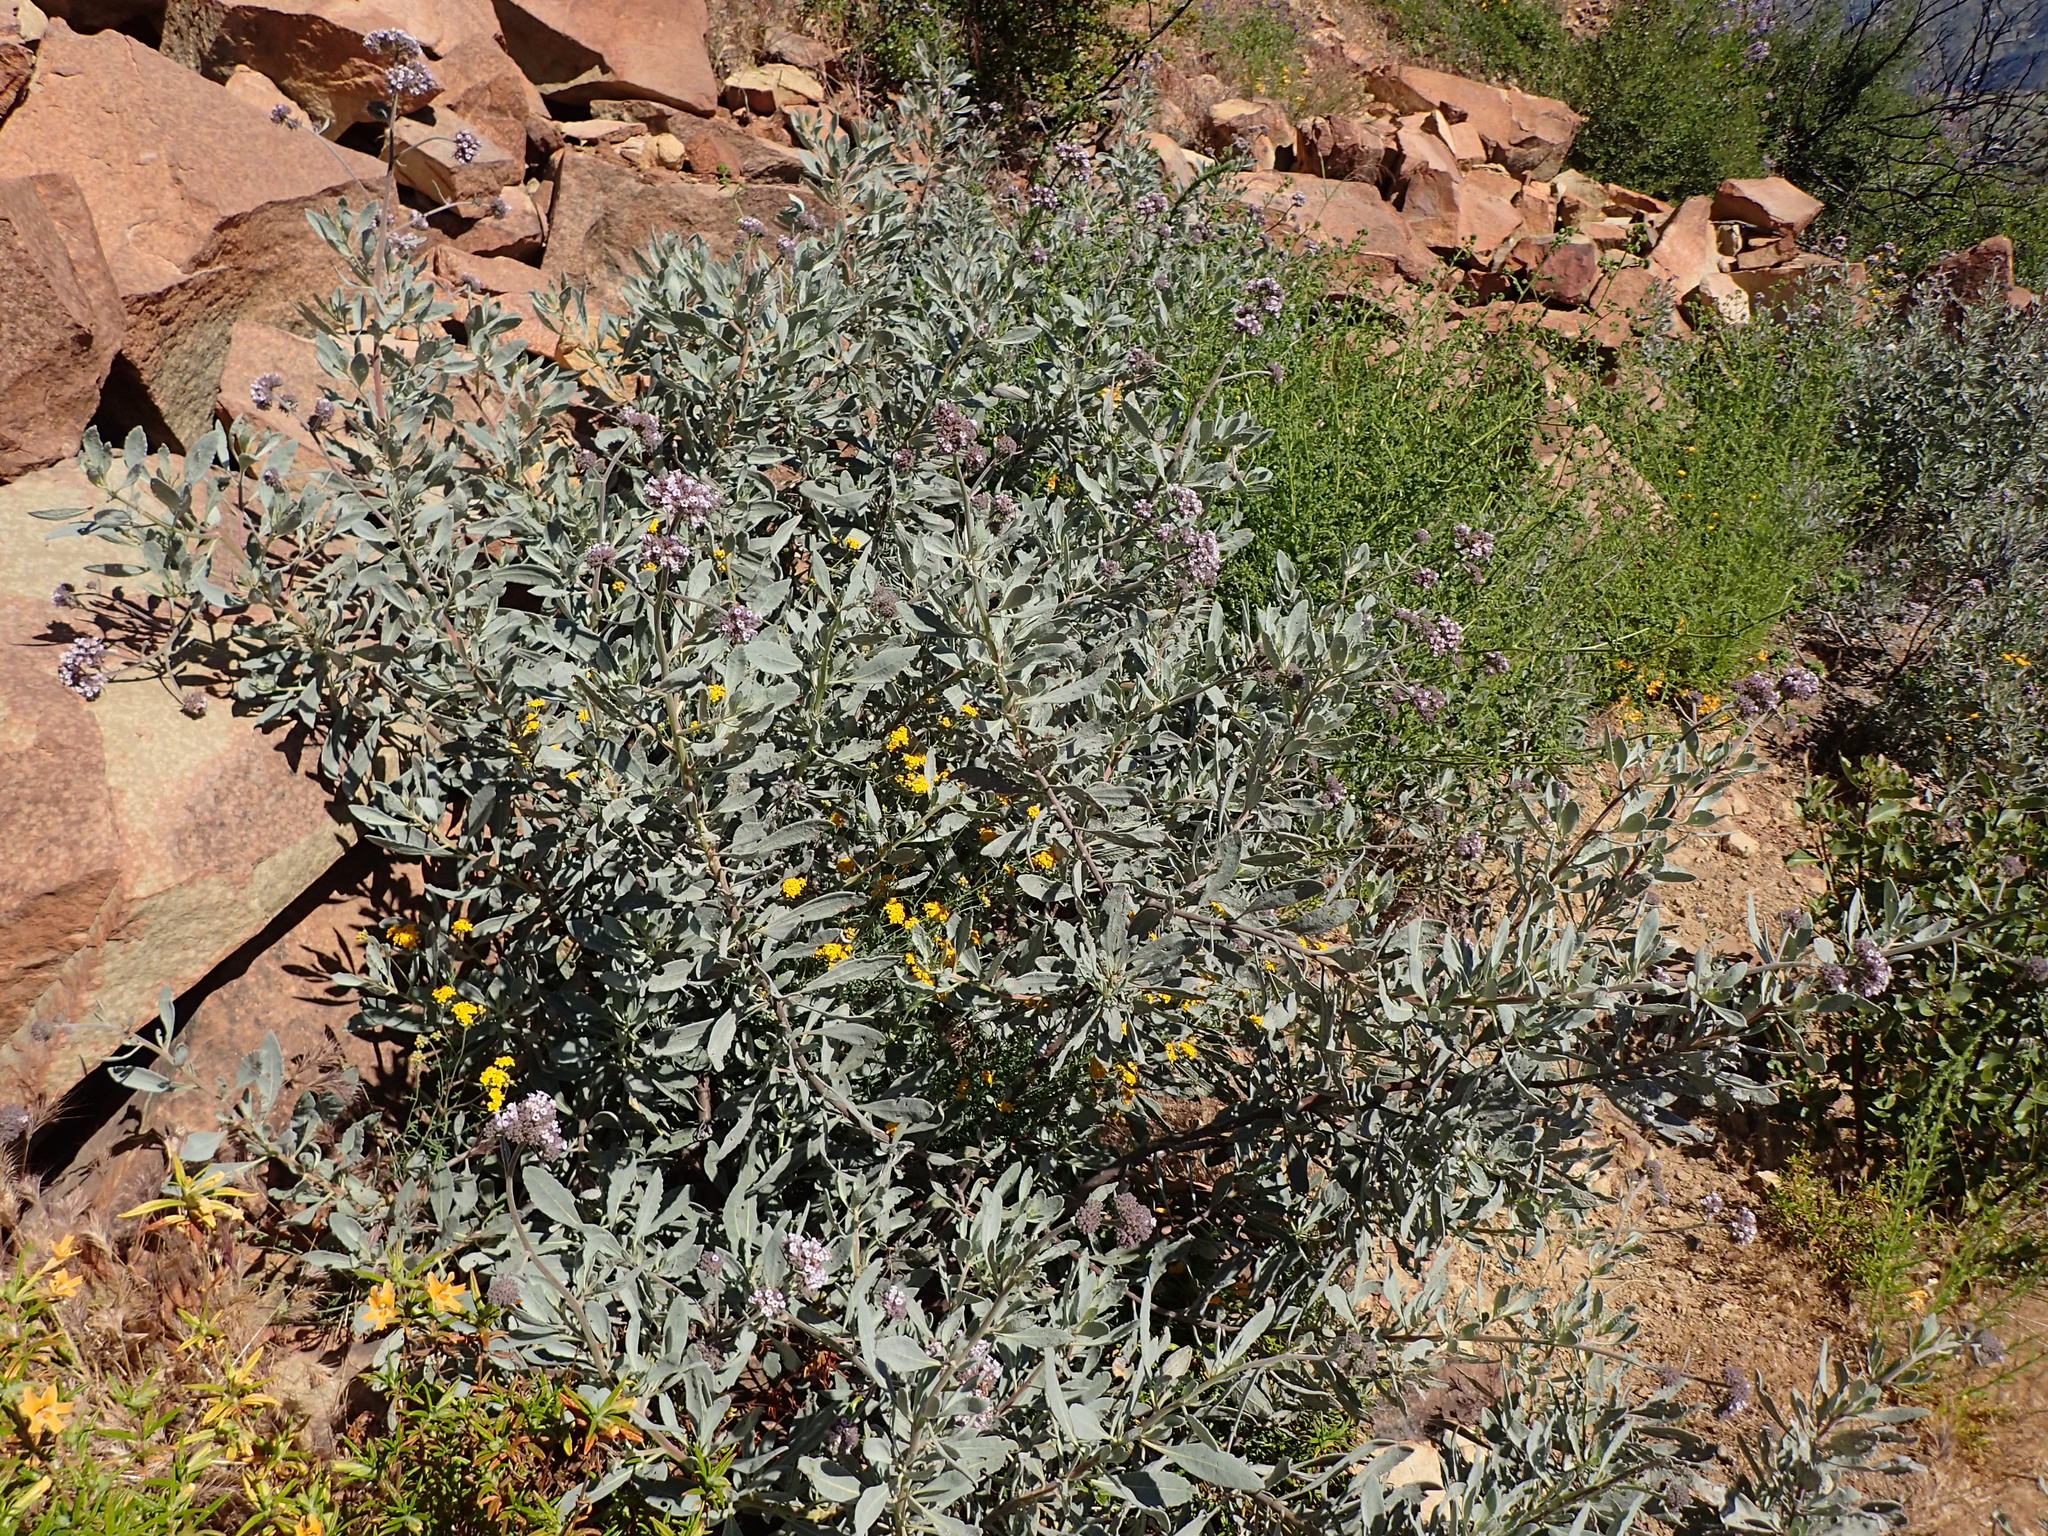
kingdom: Plantae
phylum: Tracheophyta
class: Magnoliopsida
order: Boraginales
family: Namaceae
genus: Eriodictyon
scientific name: Eriodictyon traskiae
